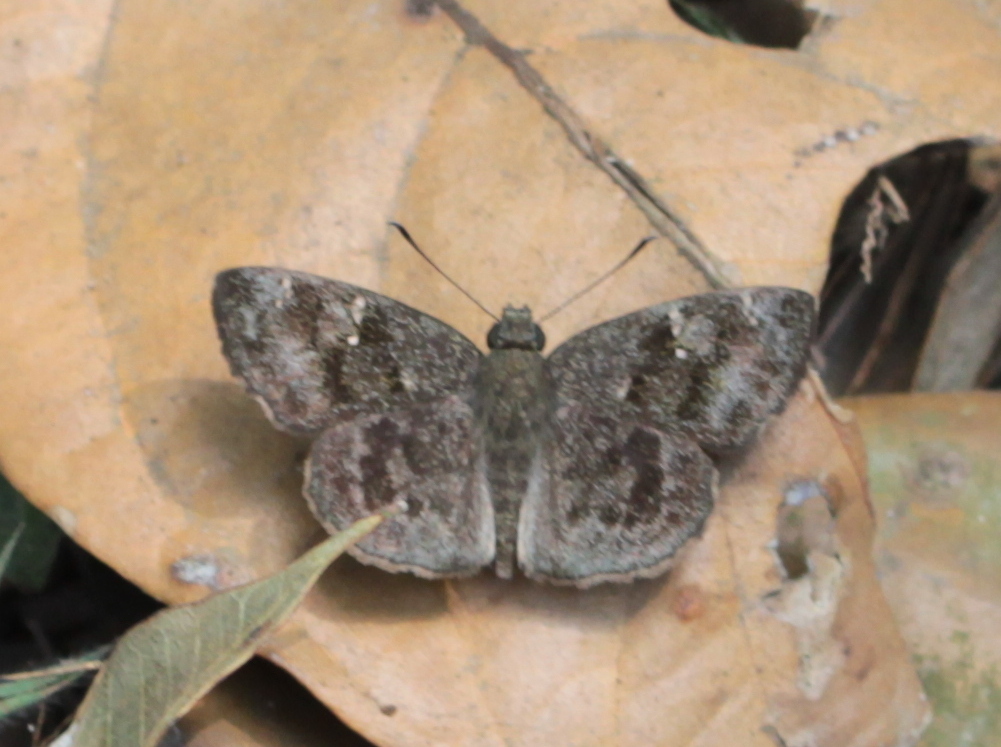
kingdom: Animalia
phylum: Arthropoda
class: Insecta
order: Lepidoptera
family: Hesperiidae
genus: Sarangesa
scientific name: Sarangesa dasahara
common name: Common small flat
